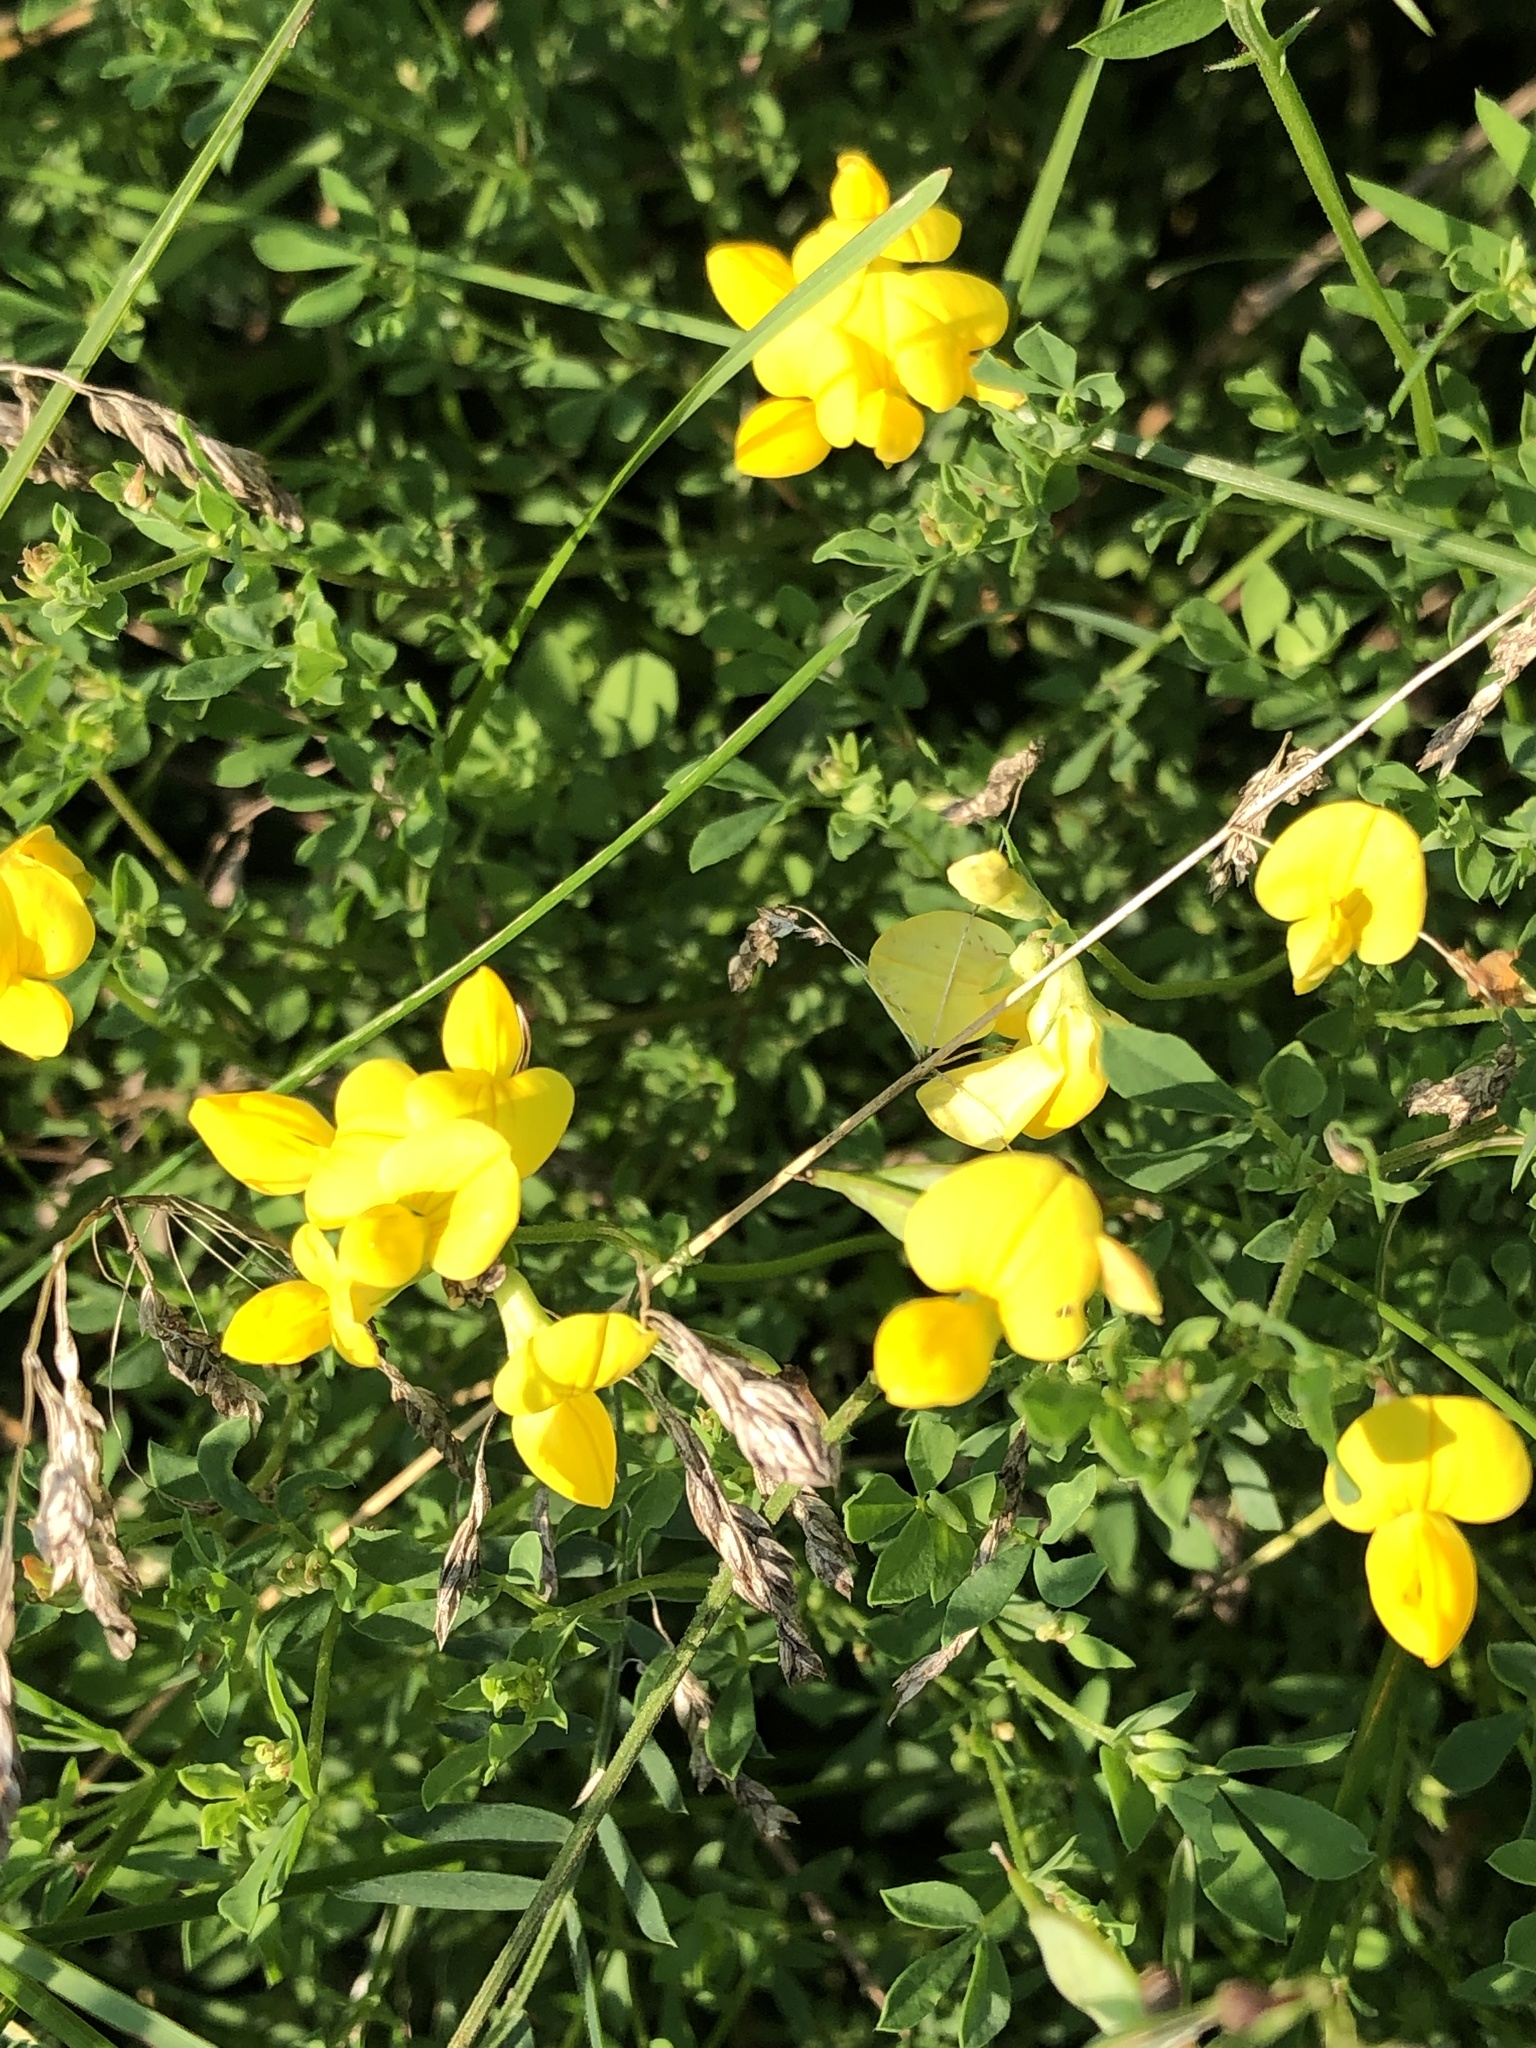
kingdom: Plantae
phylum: Tracheophyta
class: Magnoliopsida
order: Fabales
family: Fabaceae
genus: Lotus
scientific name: Lotus corniculatus
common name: Common bird's-foot-trefoil
